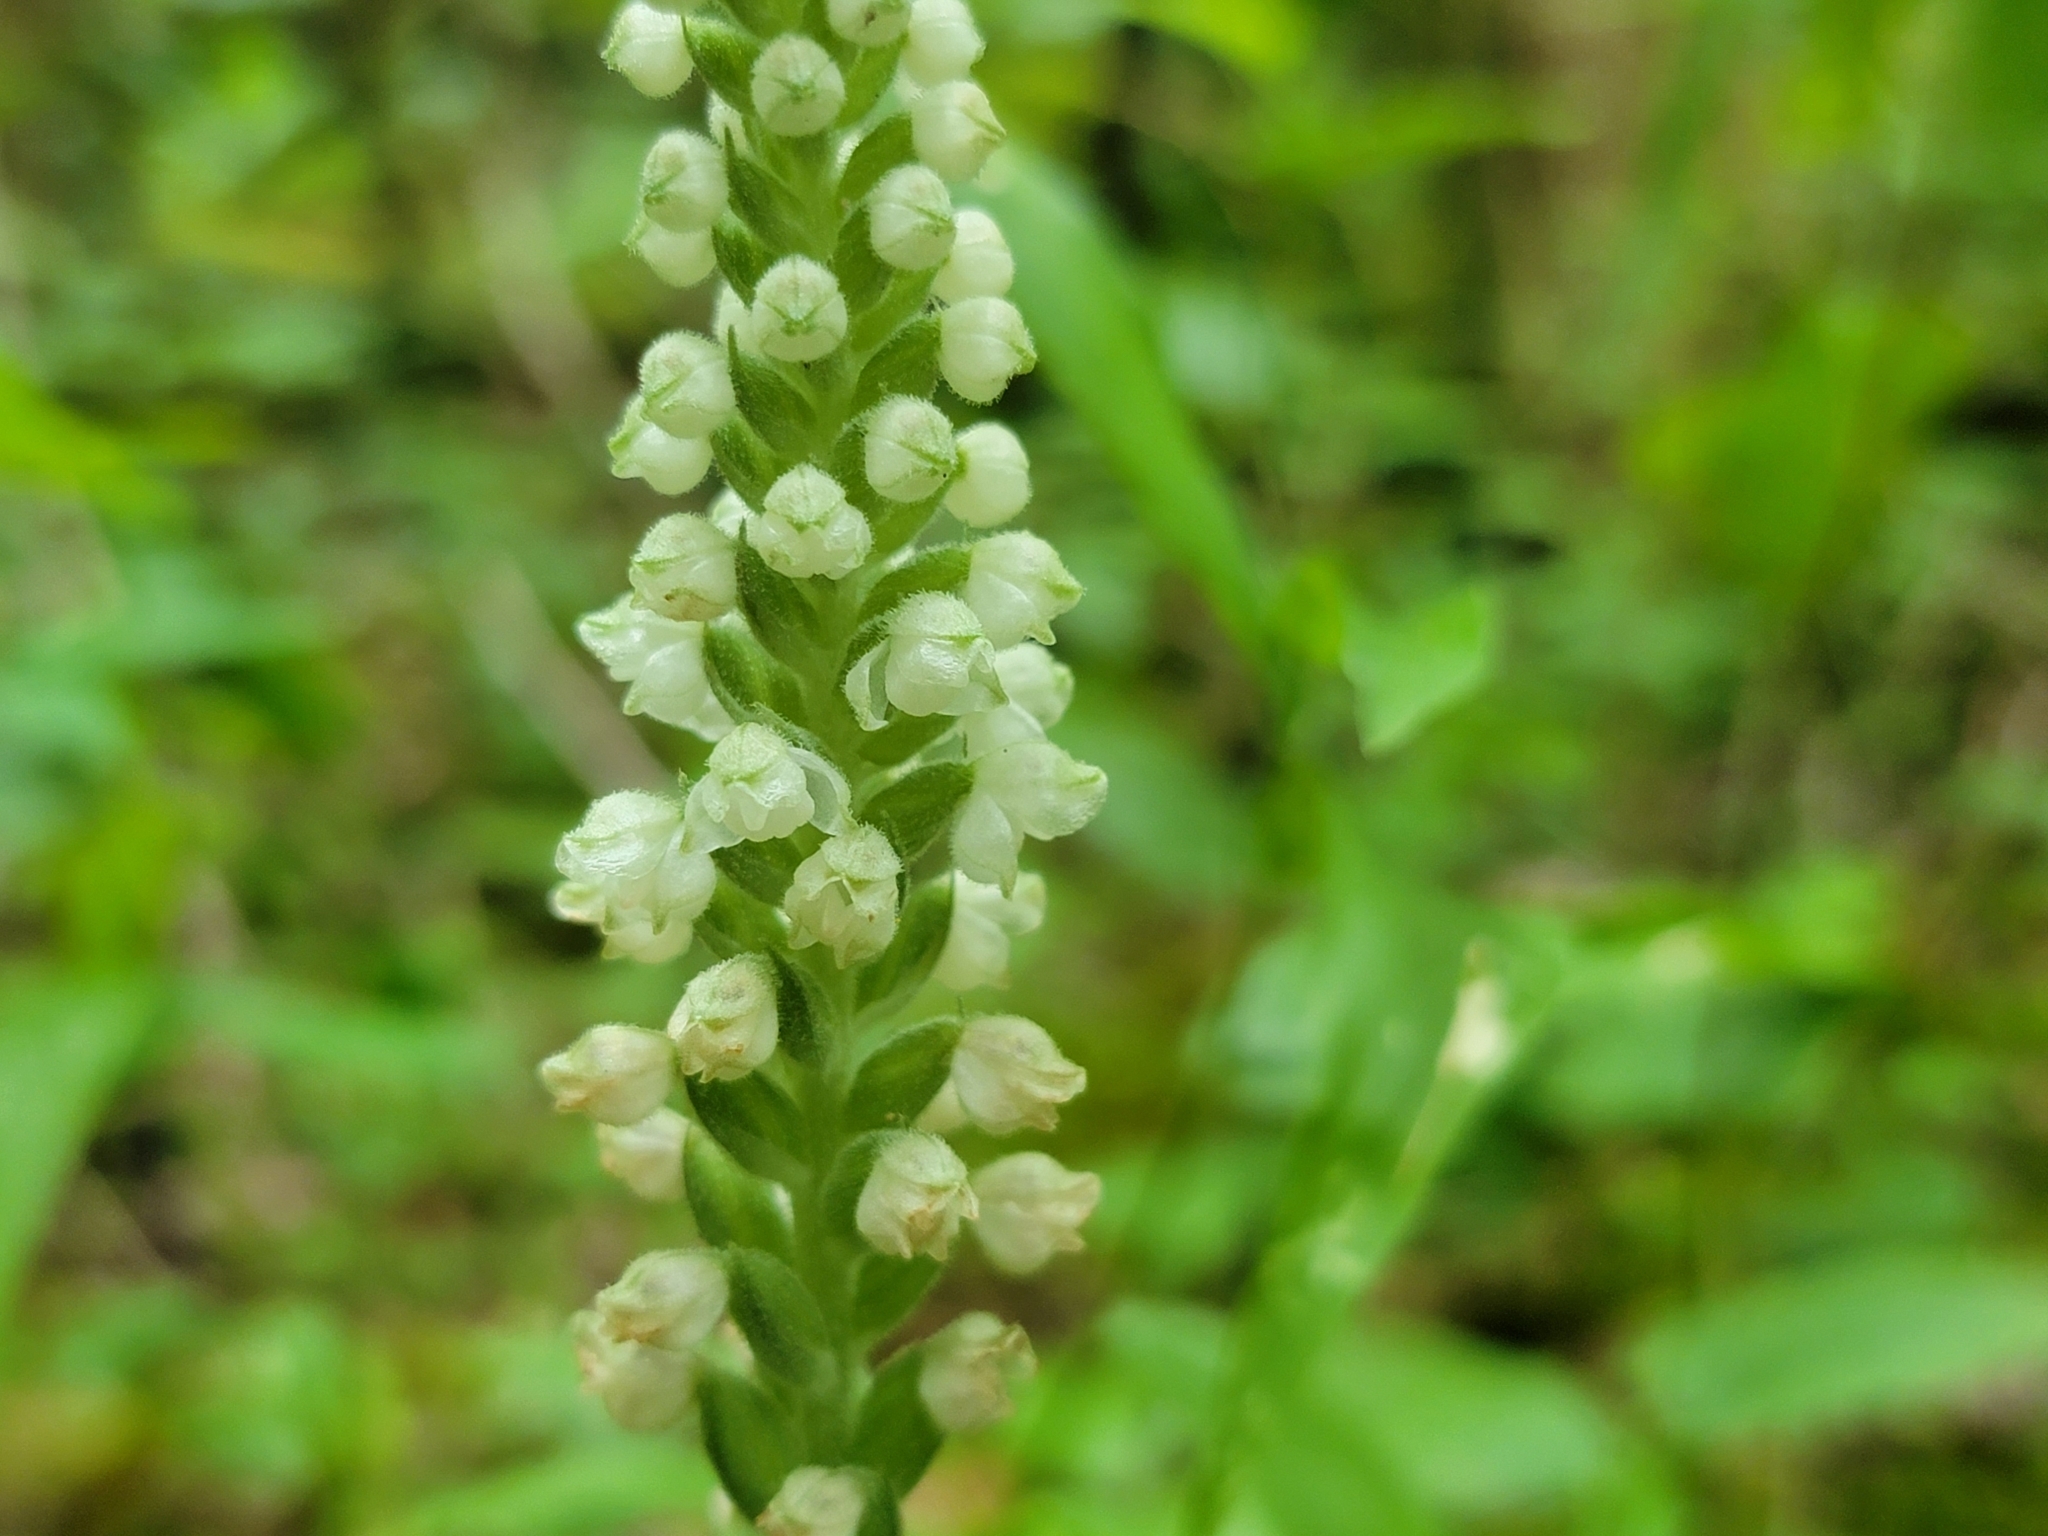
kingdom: Plantae
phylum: Tracheophyta
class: Liliopsida
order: Asparagales
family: Orchidaceae
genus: Goodyera
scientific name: Goodyera pubescens
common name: Downy rattlesnake-plantain
